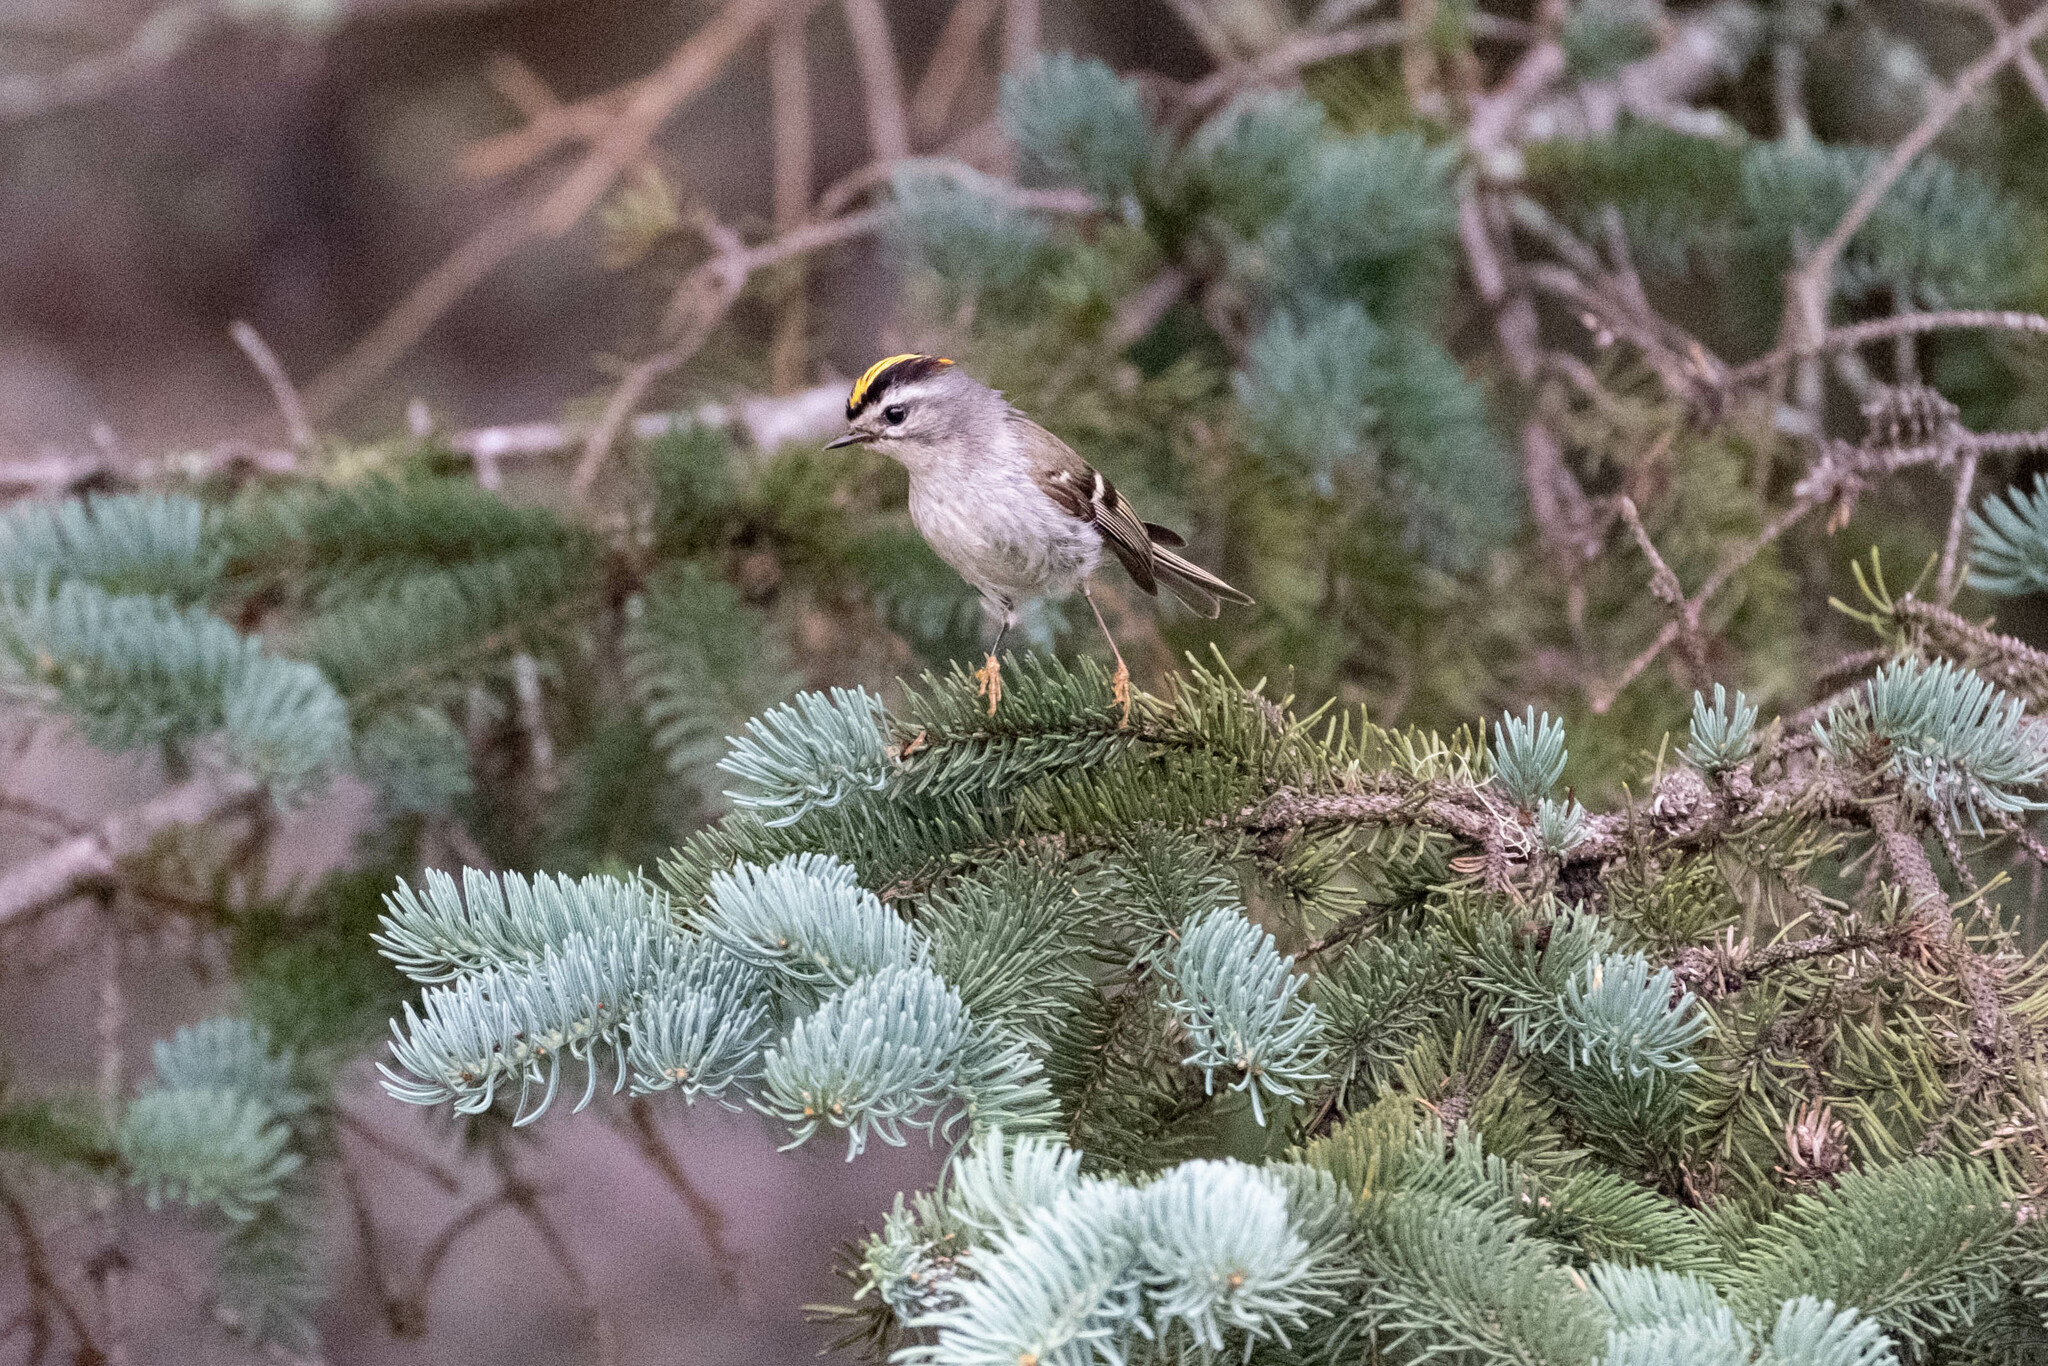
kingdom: Animalia
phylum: Chordata
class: Aves
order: Passeriformes
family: Regulidae
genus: Regulus
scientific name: Regulus satrapa
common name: Golden-crowned kinglet
